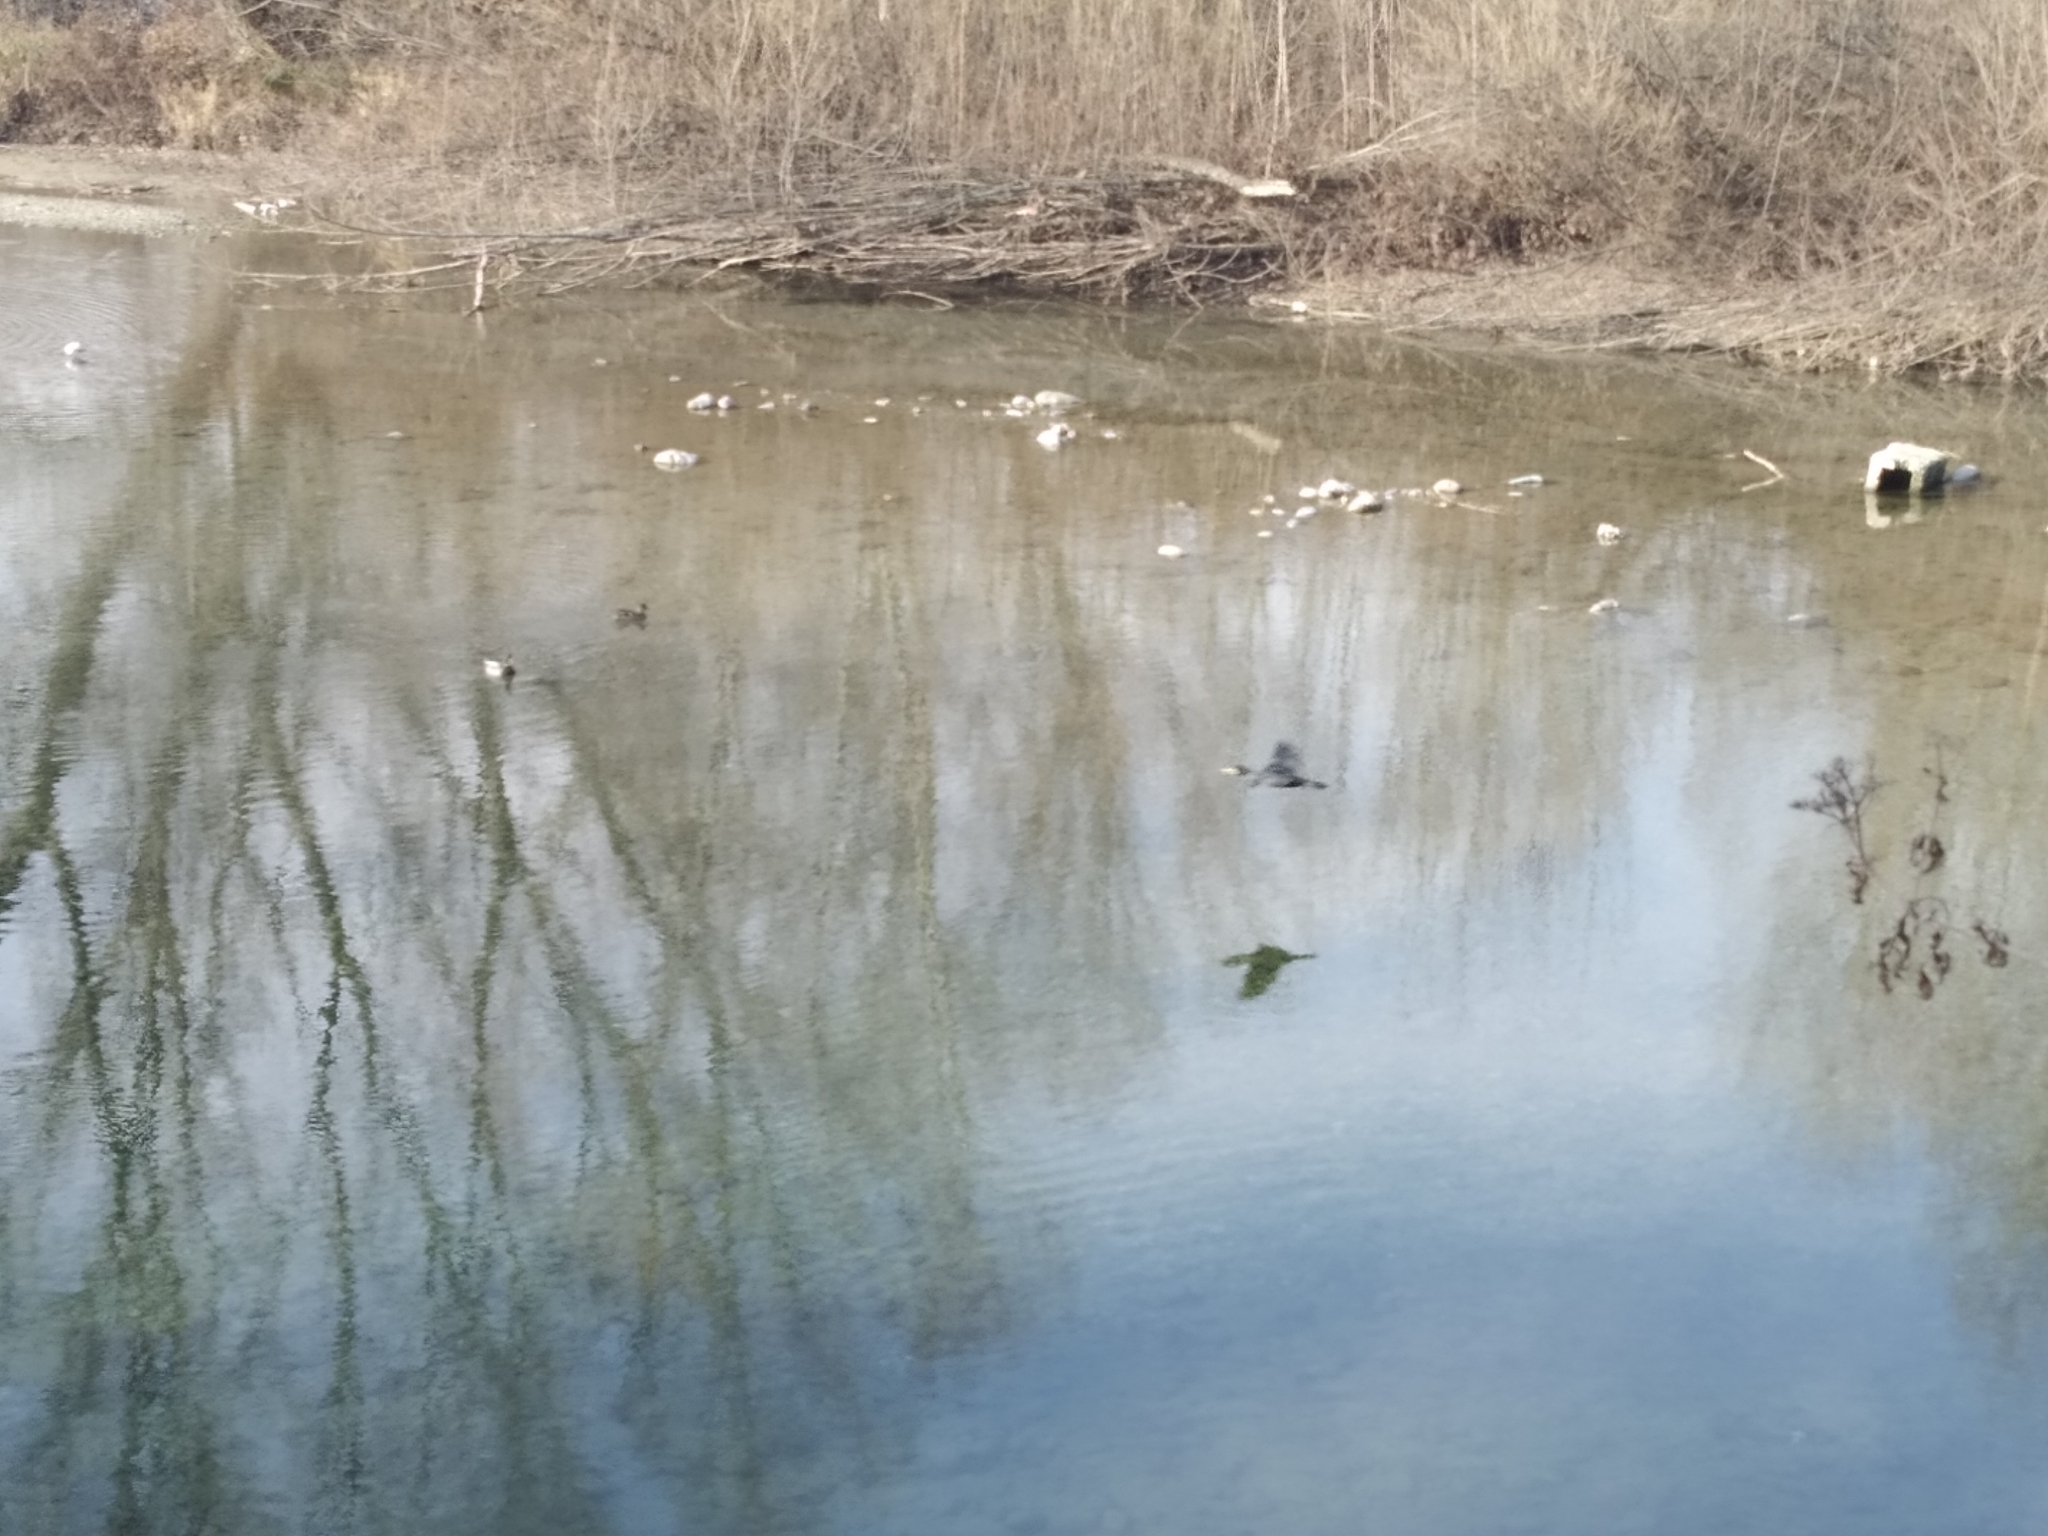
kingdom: Animalia
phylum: Chordata
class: Aves
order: Suliformes
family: Phalacrocoracidae
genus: Phalacrocorax
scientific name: Phalacrocorax carbo
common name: Great cormorant
